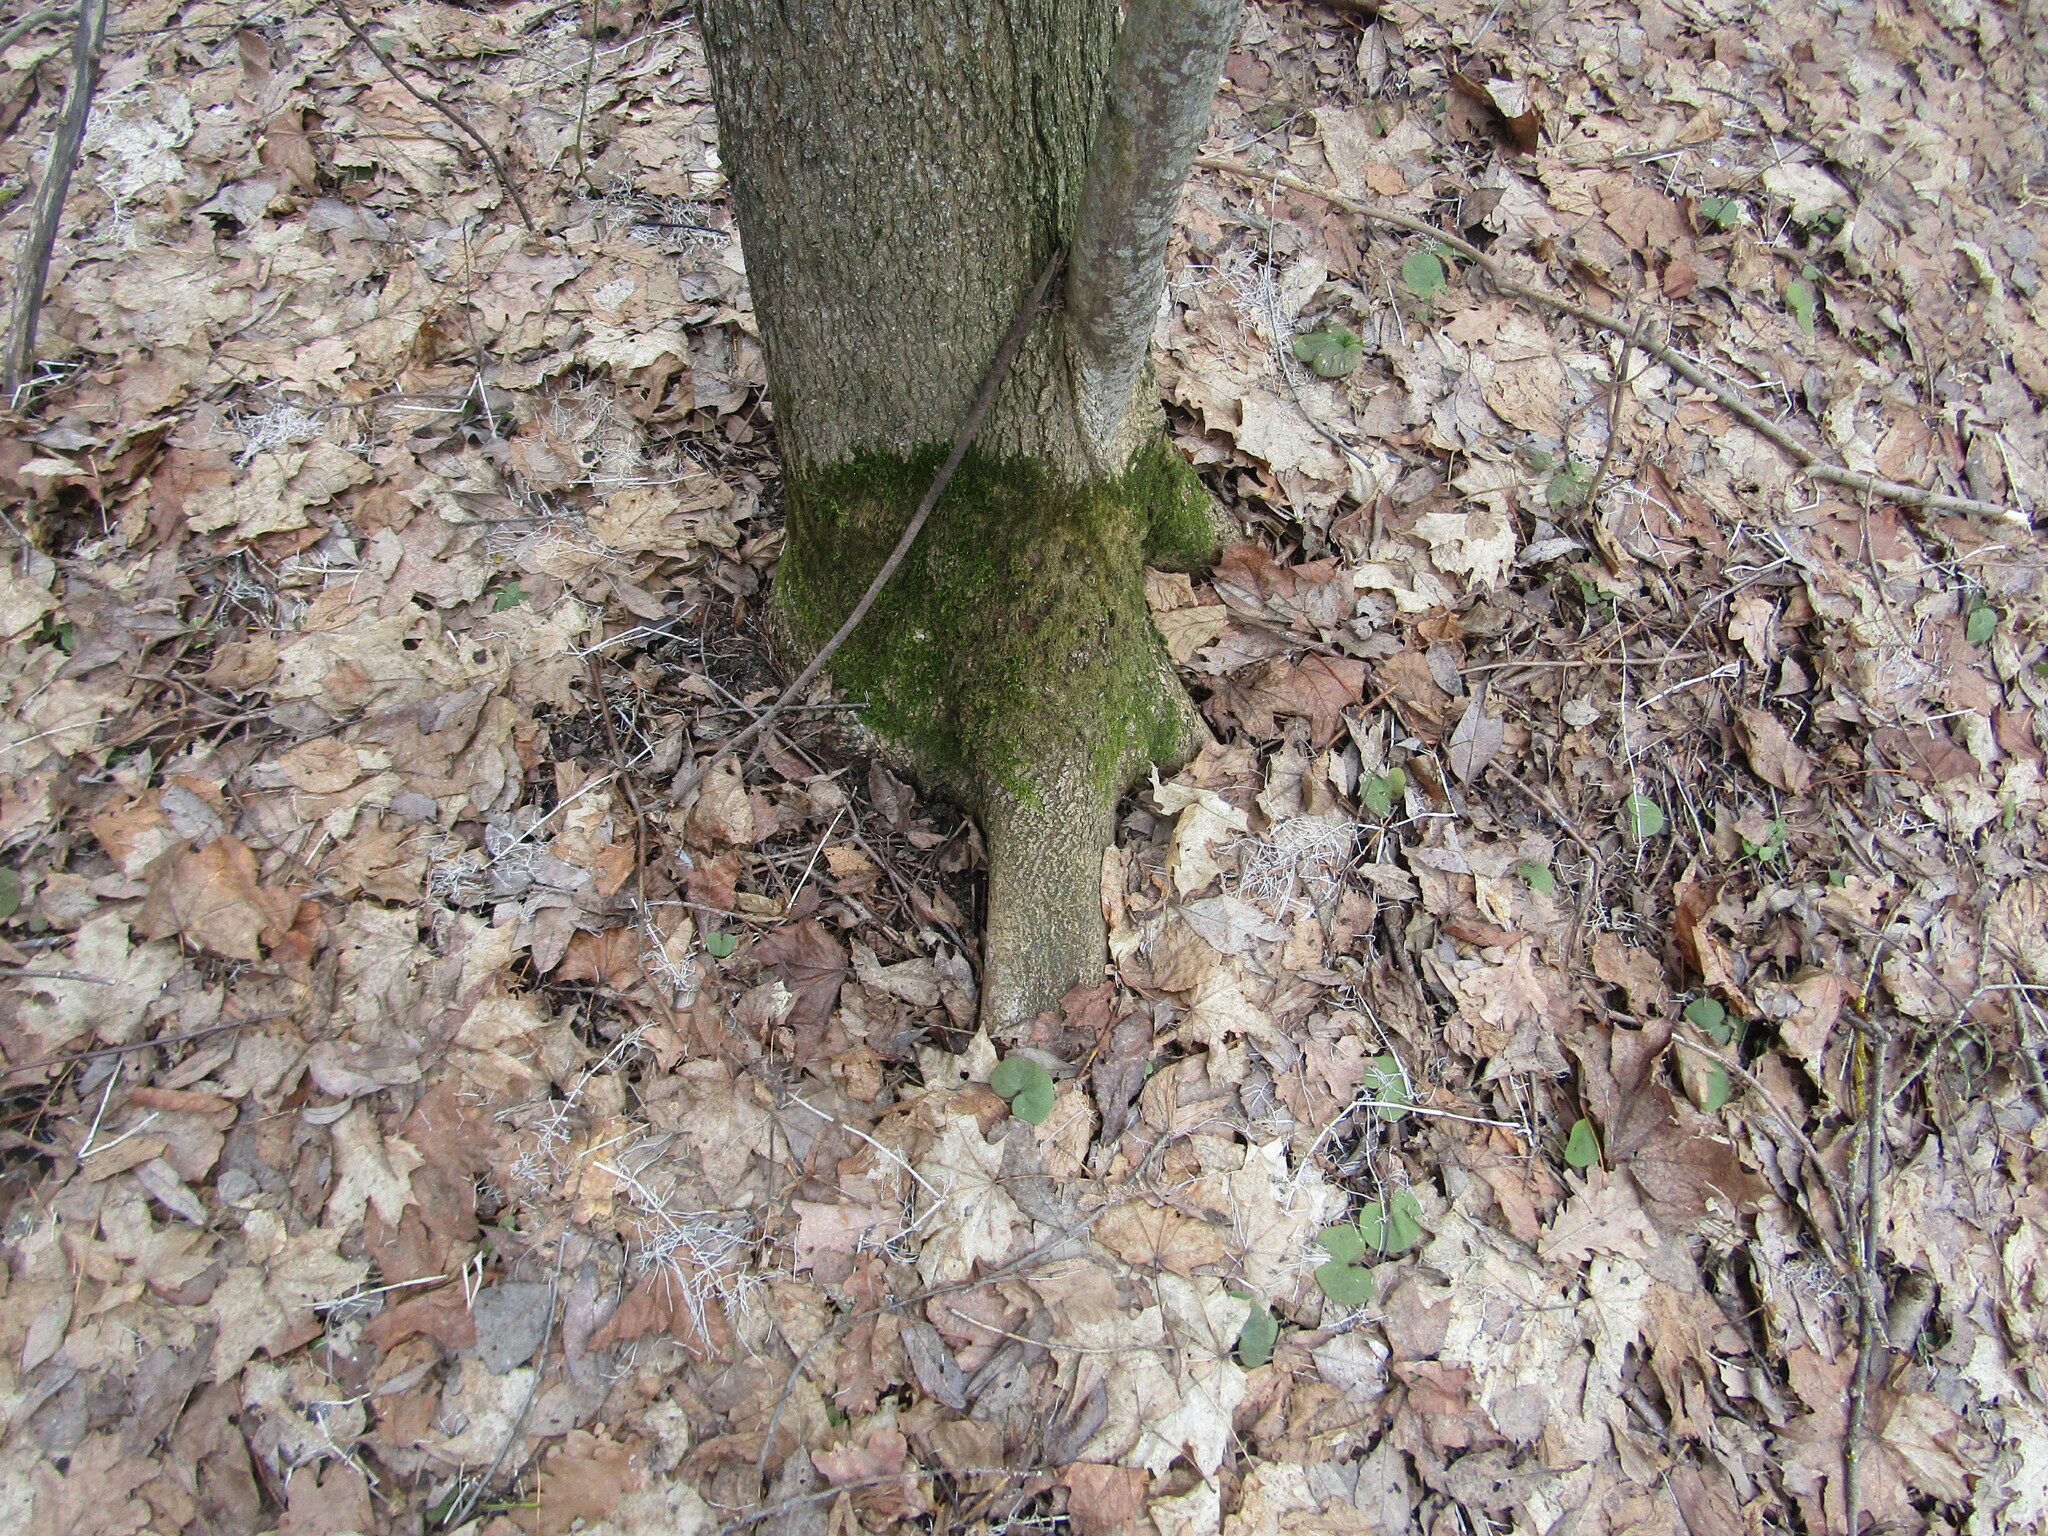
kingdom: Plantae
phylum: Tracheophyta
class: Magnoliopsida
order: Sapindales
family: Sapindaceae
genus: Acer
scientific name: Acer platanoides
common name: Norway maple
